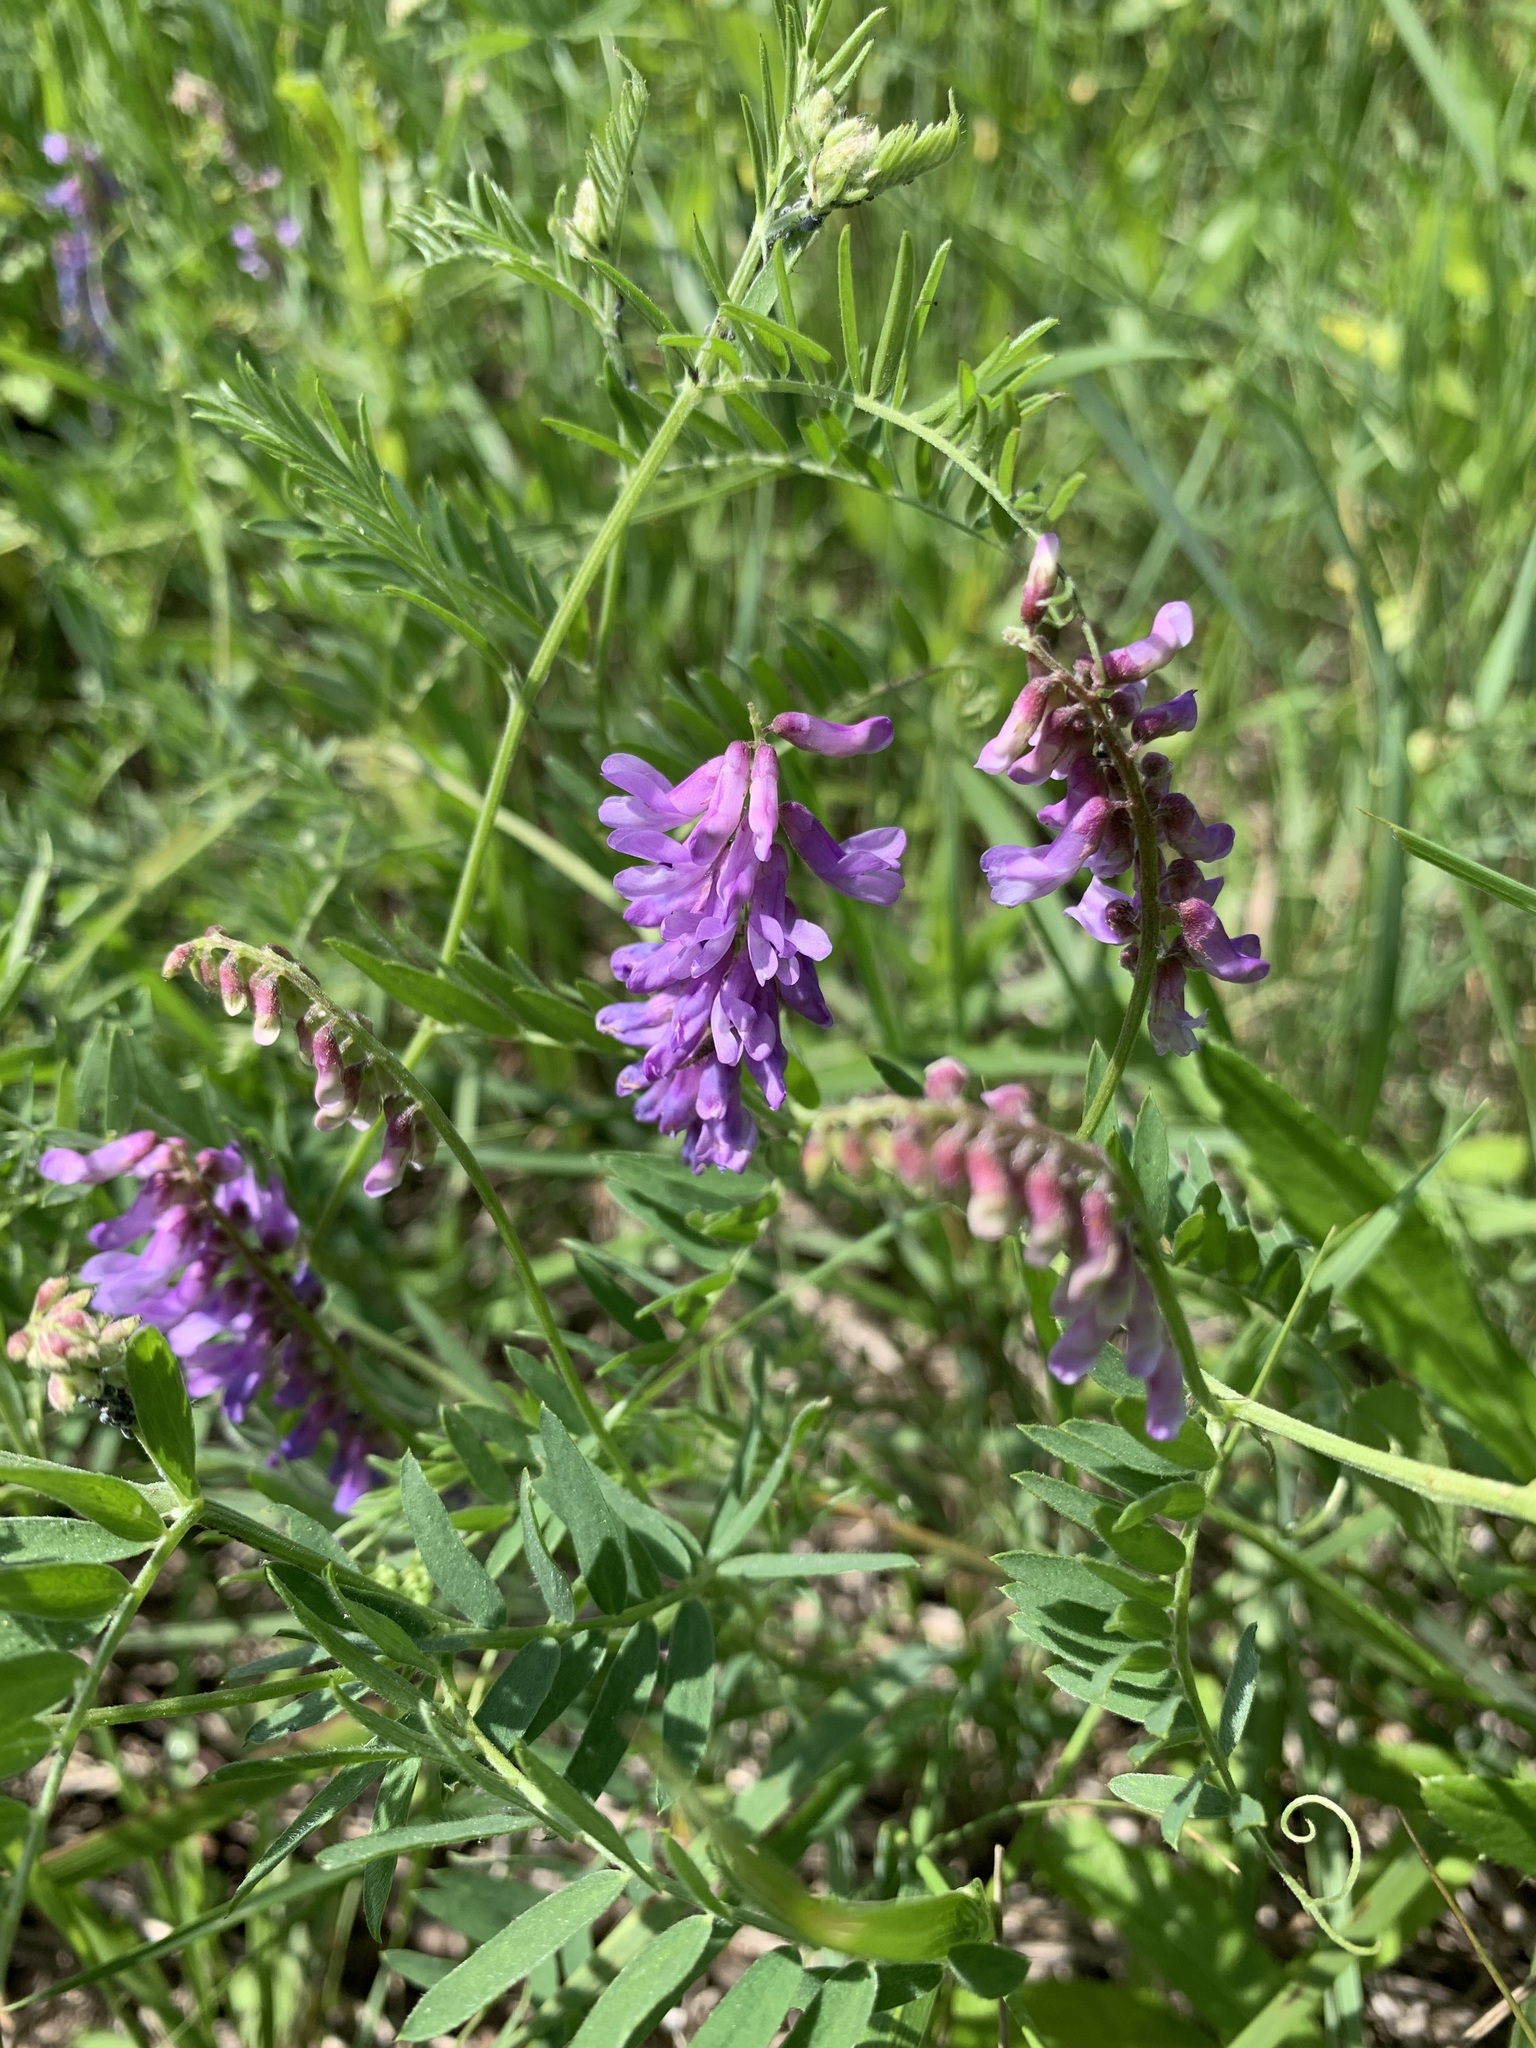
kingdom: Plantae
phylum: Tracheophyta
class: Magnoliopsida
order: Fabales
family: Fabaceae
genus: Vicia
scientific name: Vicia cracca
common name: Bird vetch
